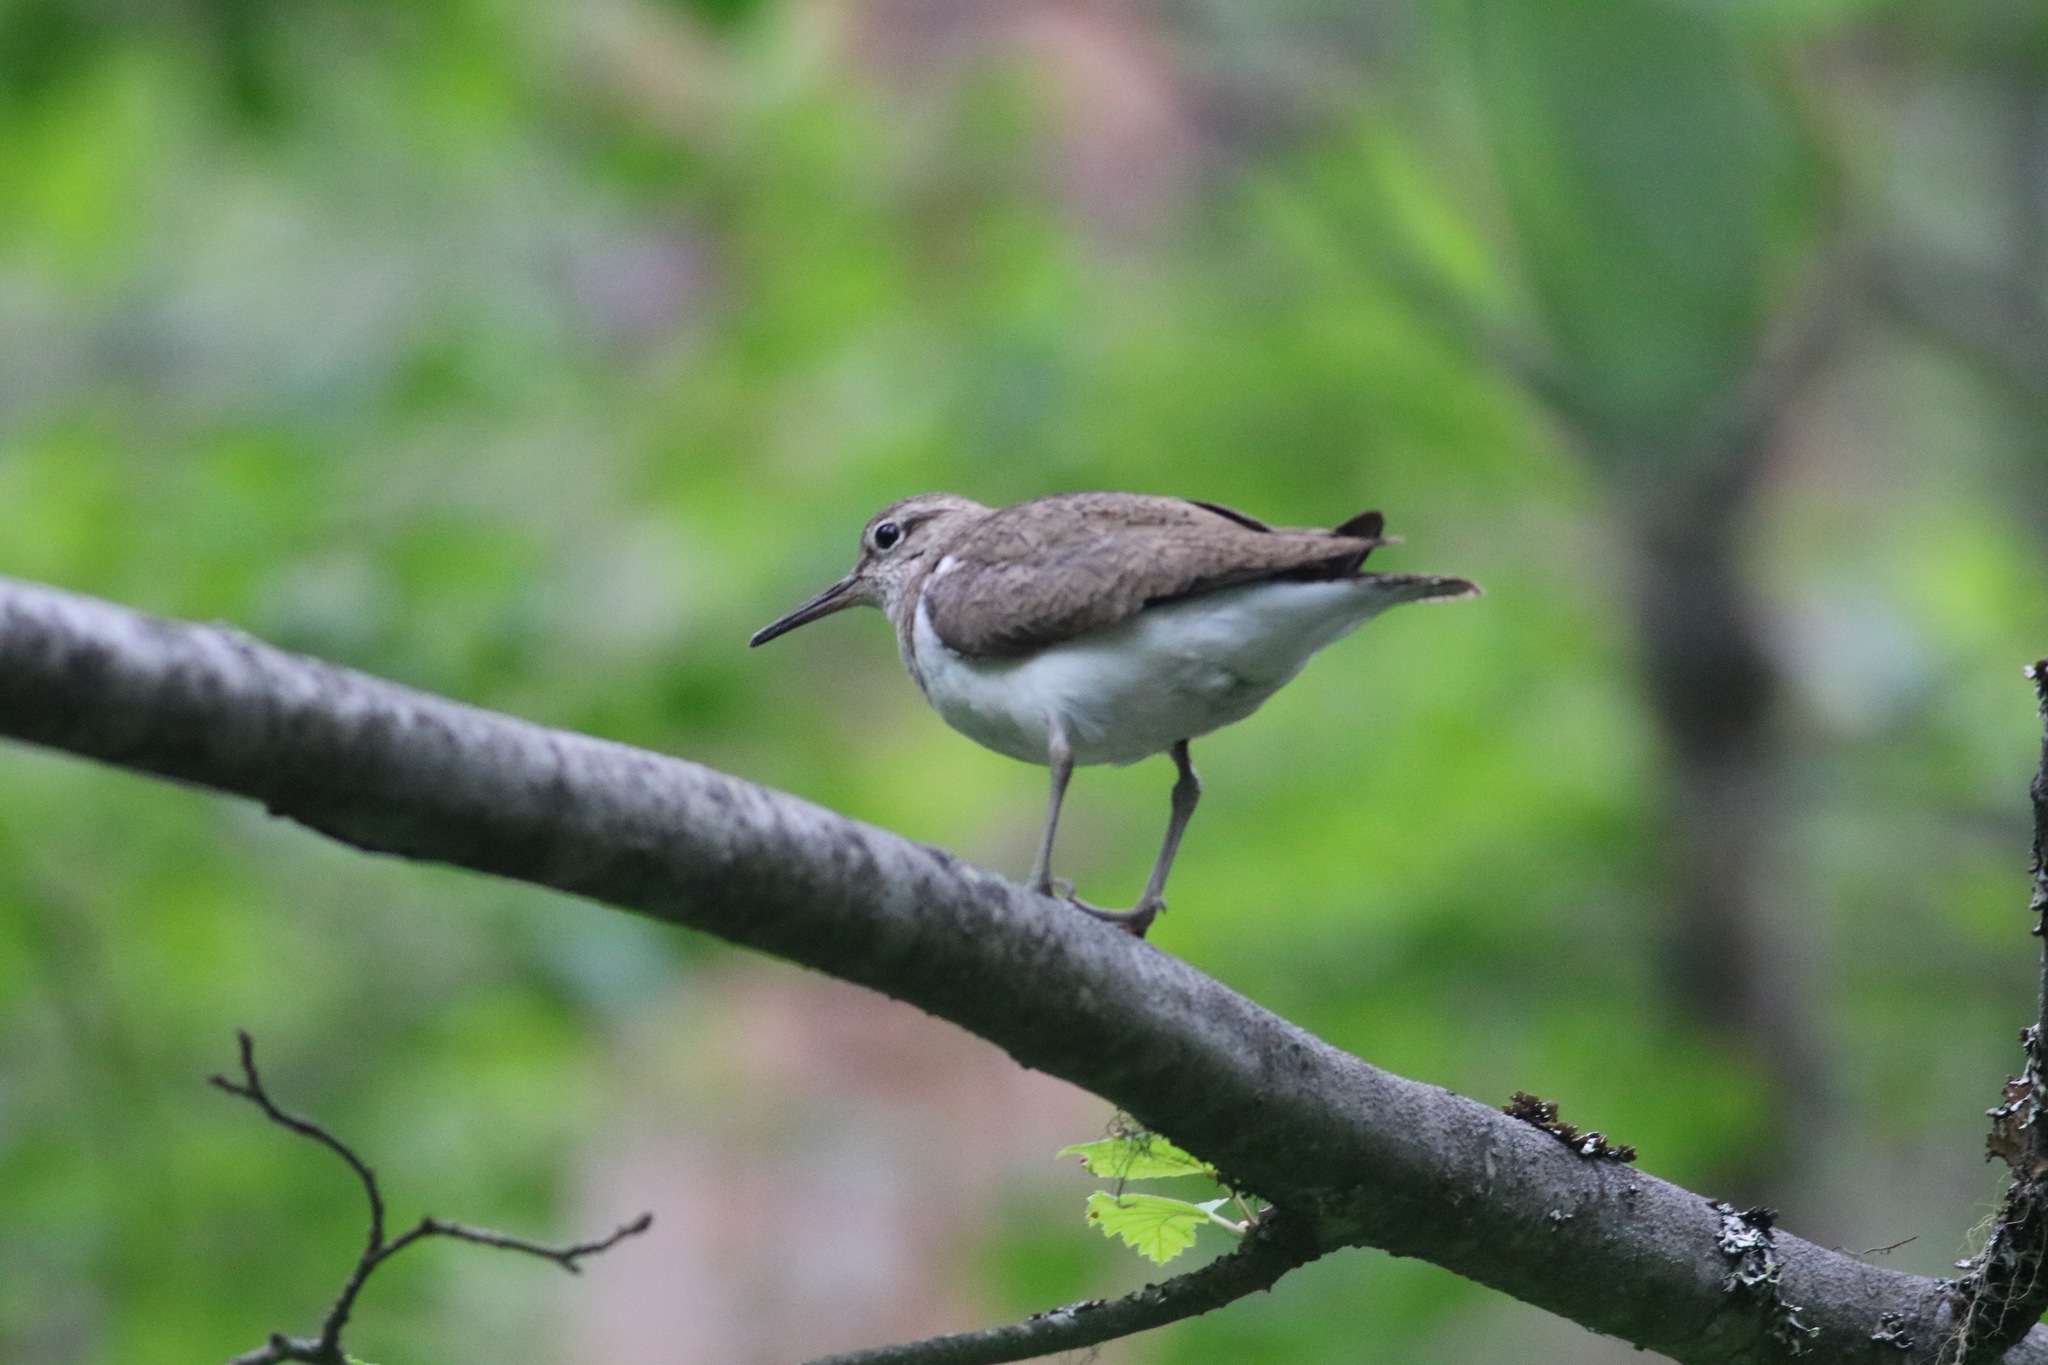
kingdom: Animalia
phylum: Chordata
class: Aves
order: Charadriiformes
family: Scolopacidae
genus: Actitis
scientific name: Actitis hypoleucos
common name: Common sandpiper
